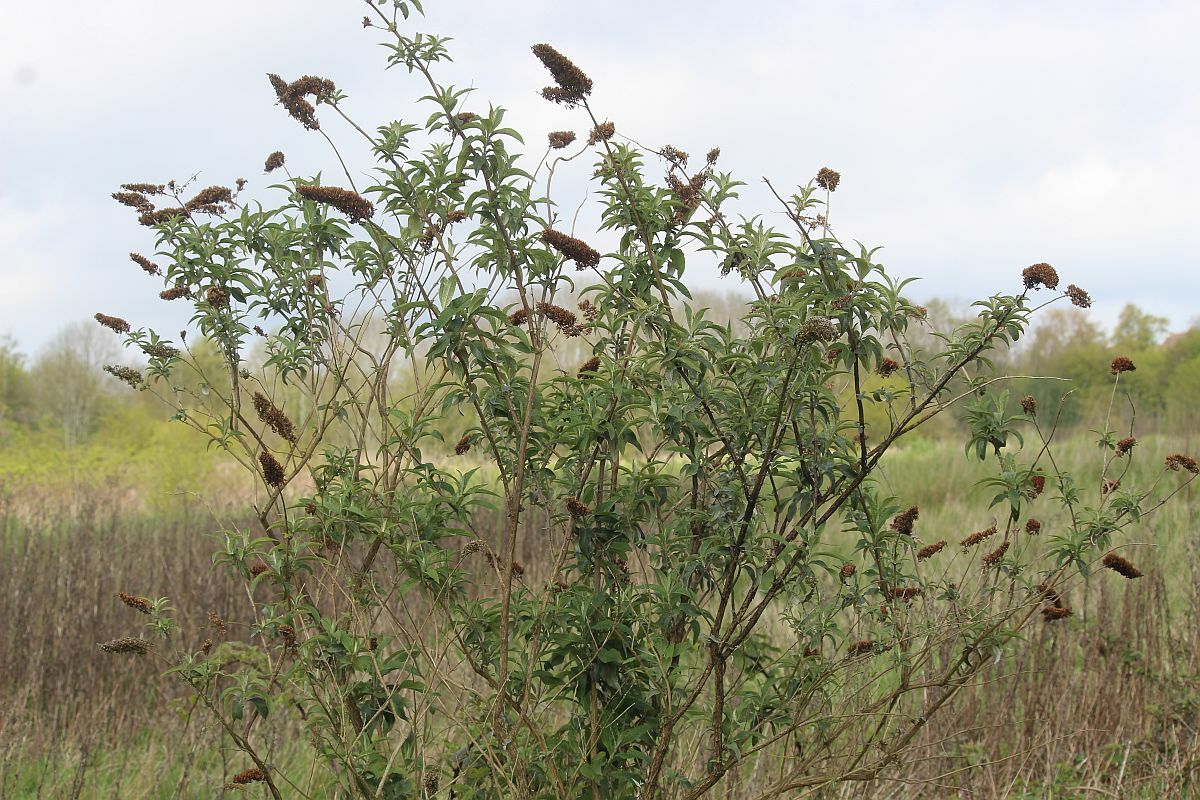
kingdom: Plantae
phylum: Tracheophyta
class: Magnoliopsida
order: Lamiales
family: Scrophulariaceae
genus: Buddleja
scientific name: Buddleja davidii
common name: Butterfly-bush
